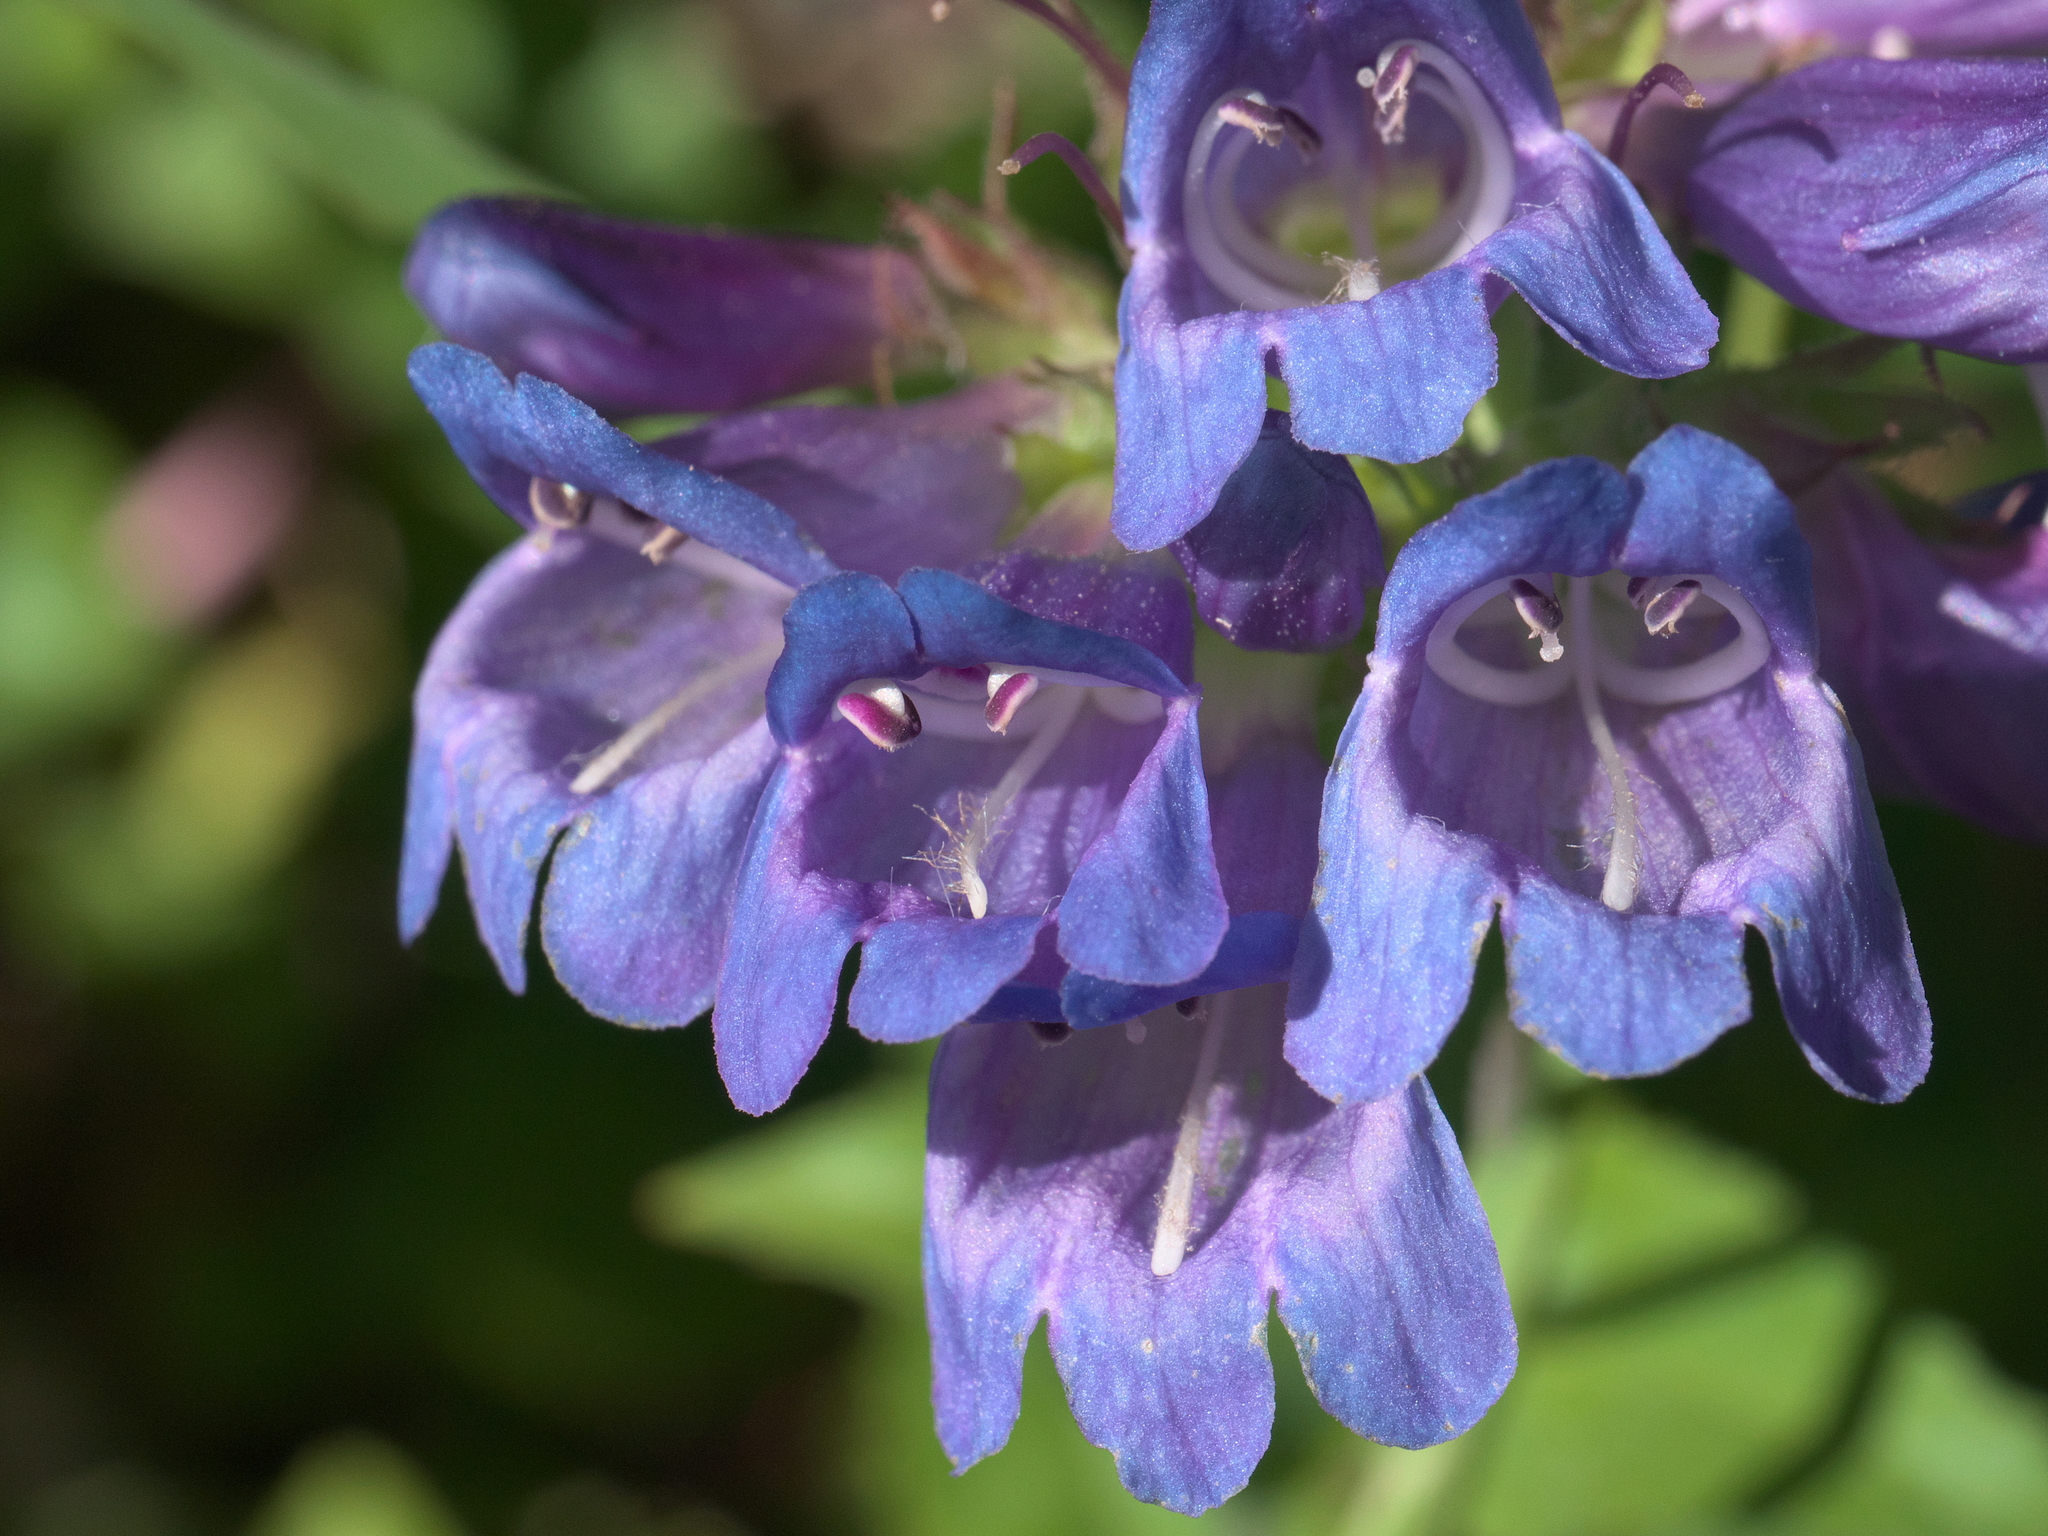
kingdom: Plantae
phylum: Tracheophyta
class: Magnoliopsida
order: Lamiales
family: Plantaginaceae
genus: Penstemon
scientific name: Penstemon serrulatus
